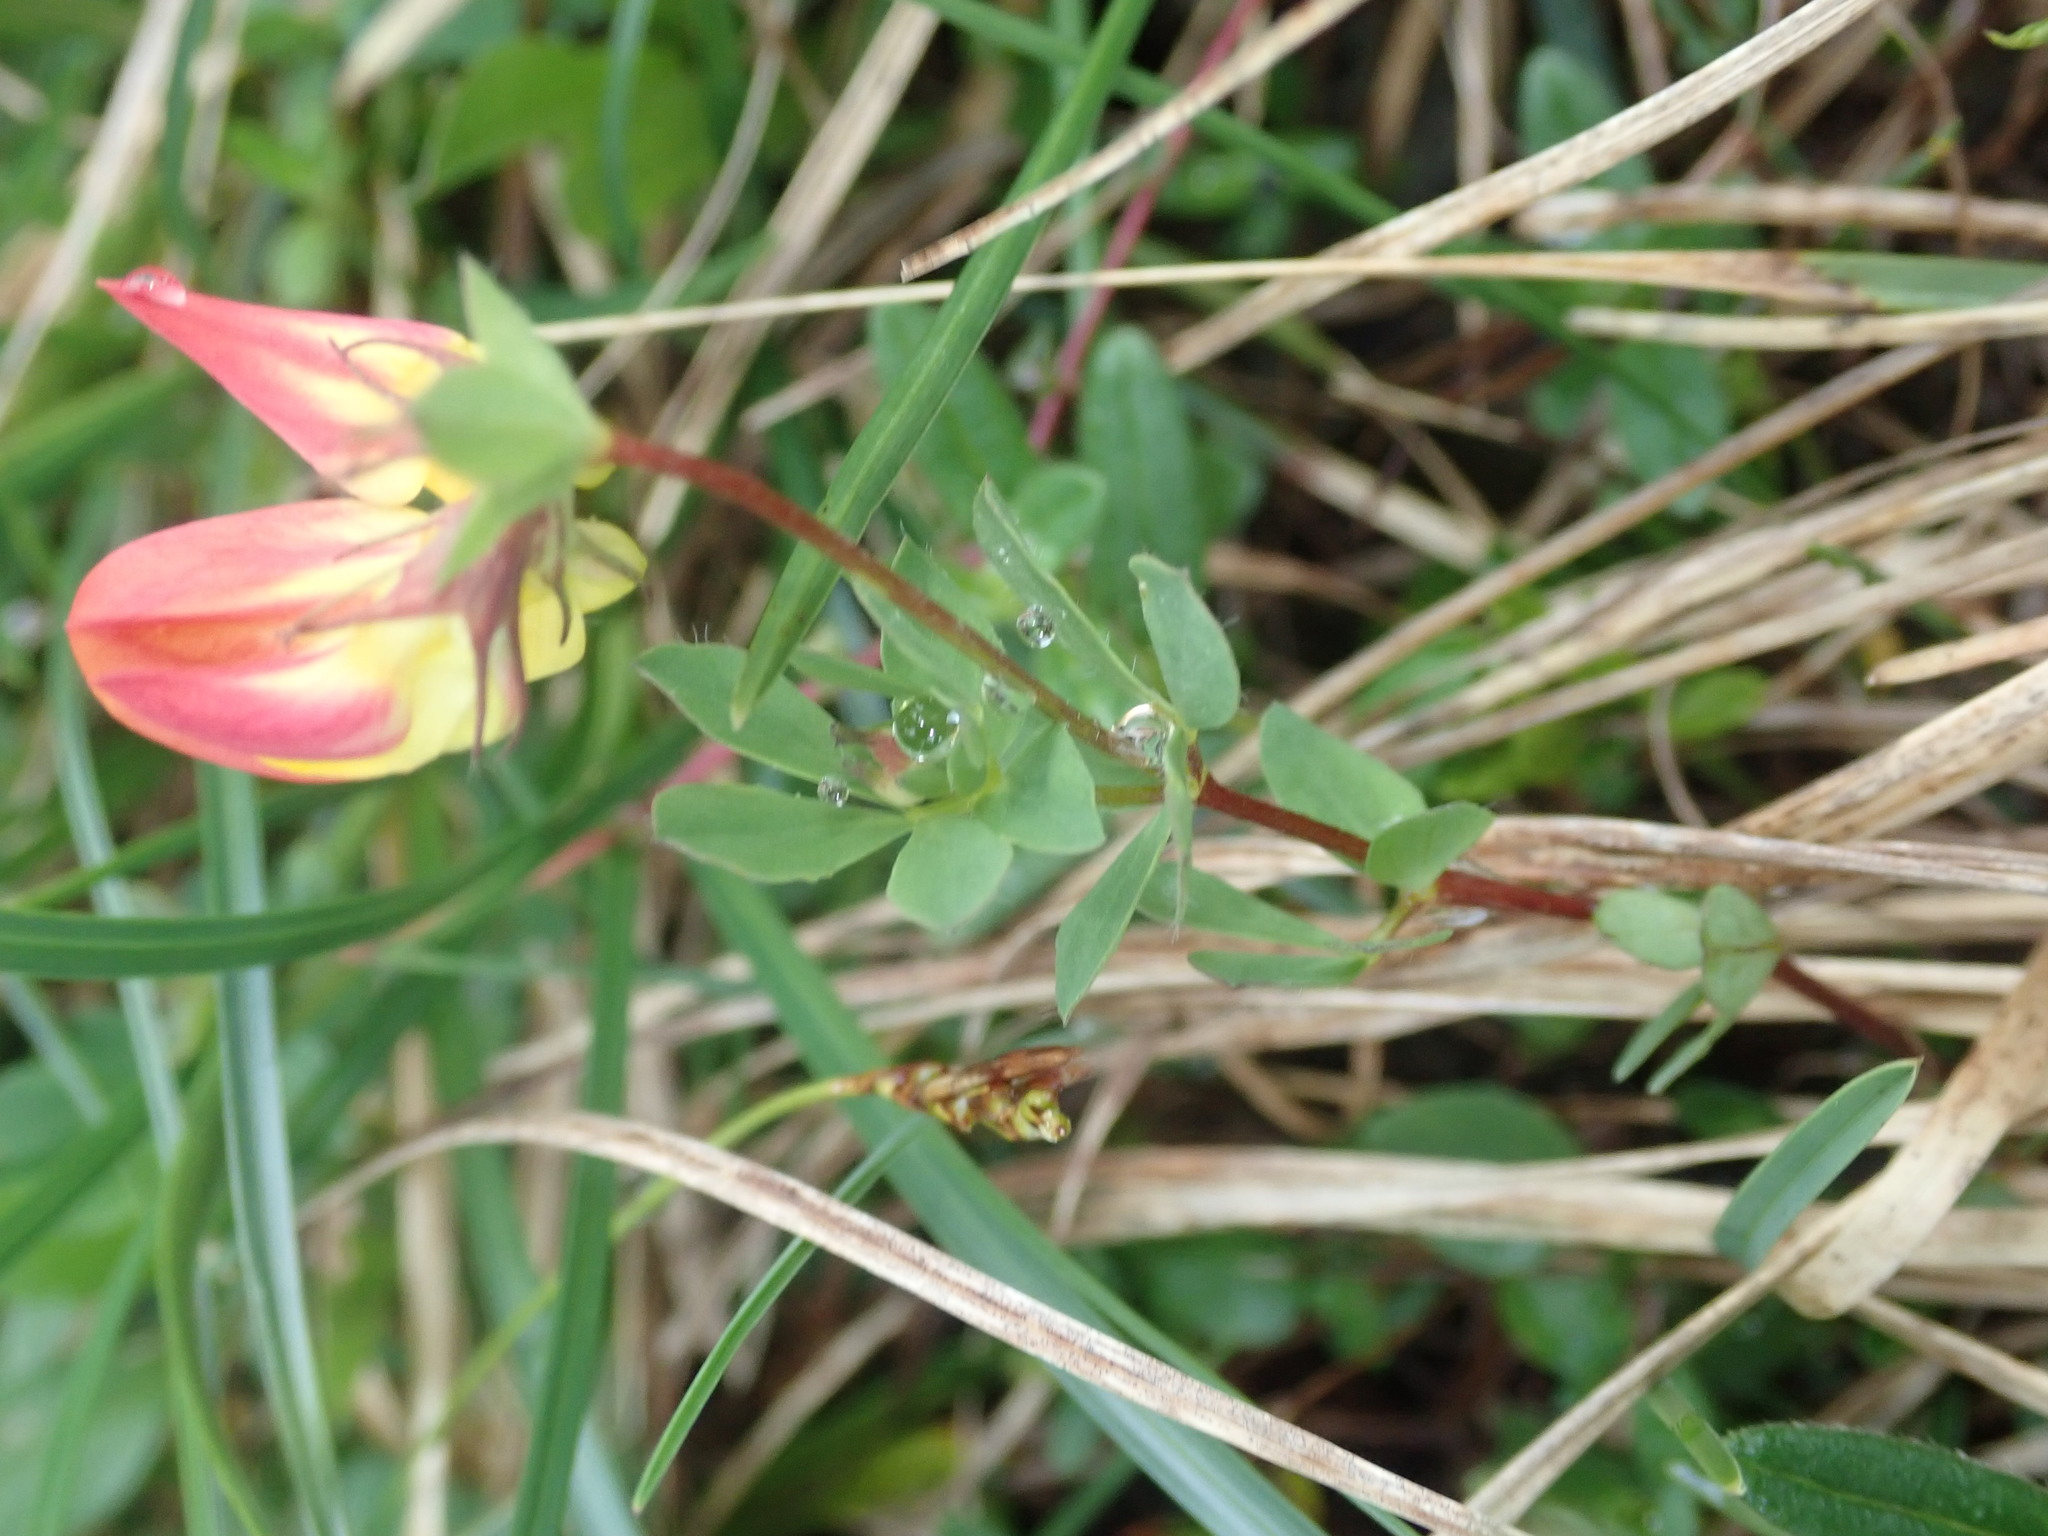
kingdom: Plantae
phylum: Tracheophyta
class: Magnoliopsida
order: Fabales
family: Fabaceae
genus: Lotus
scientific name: Lotus corniculatus
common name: Common bird's-foot-trefoil
